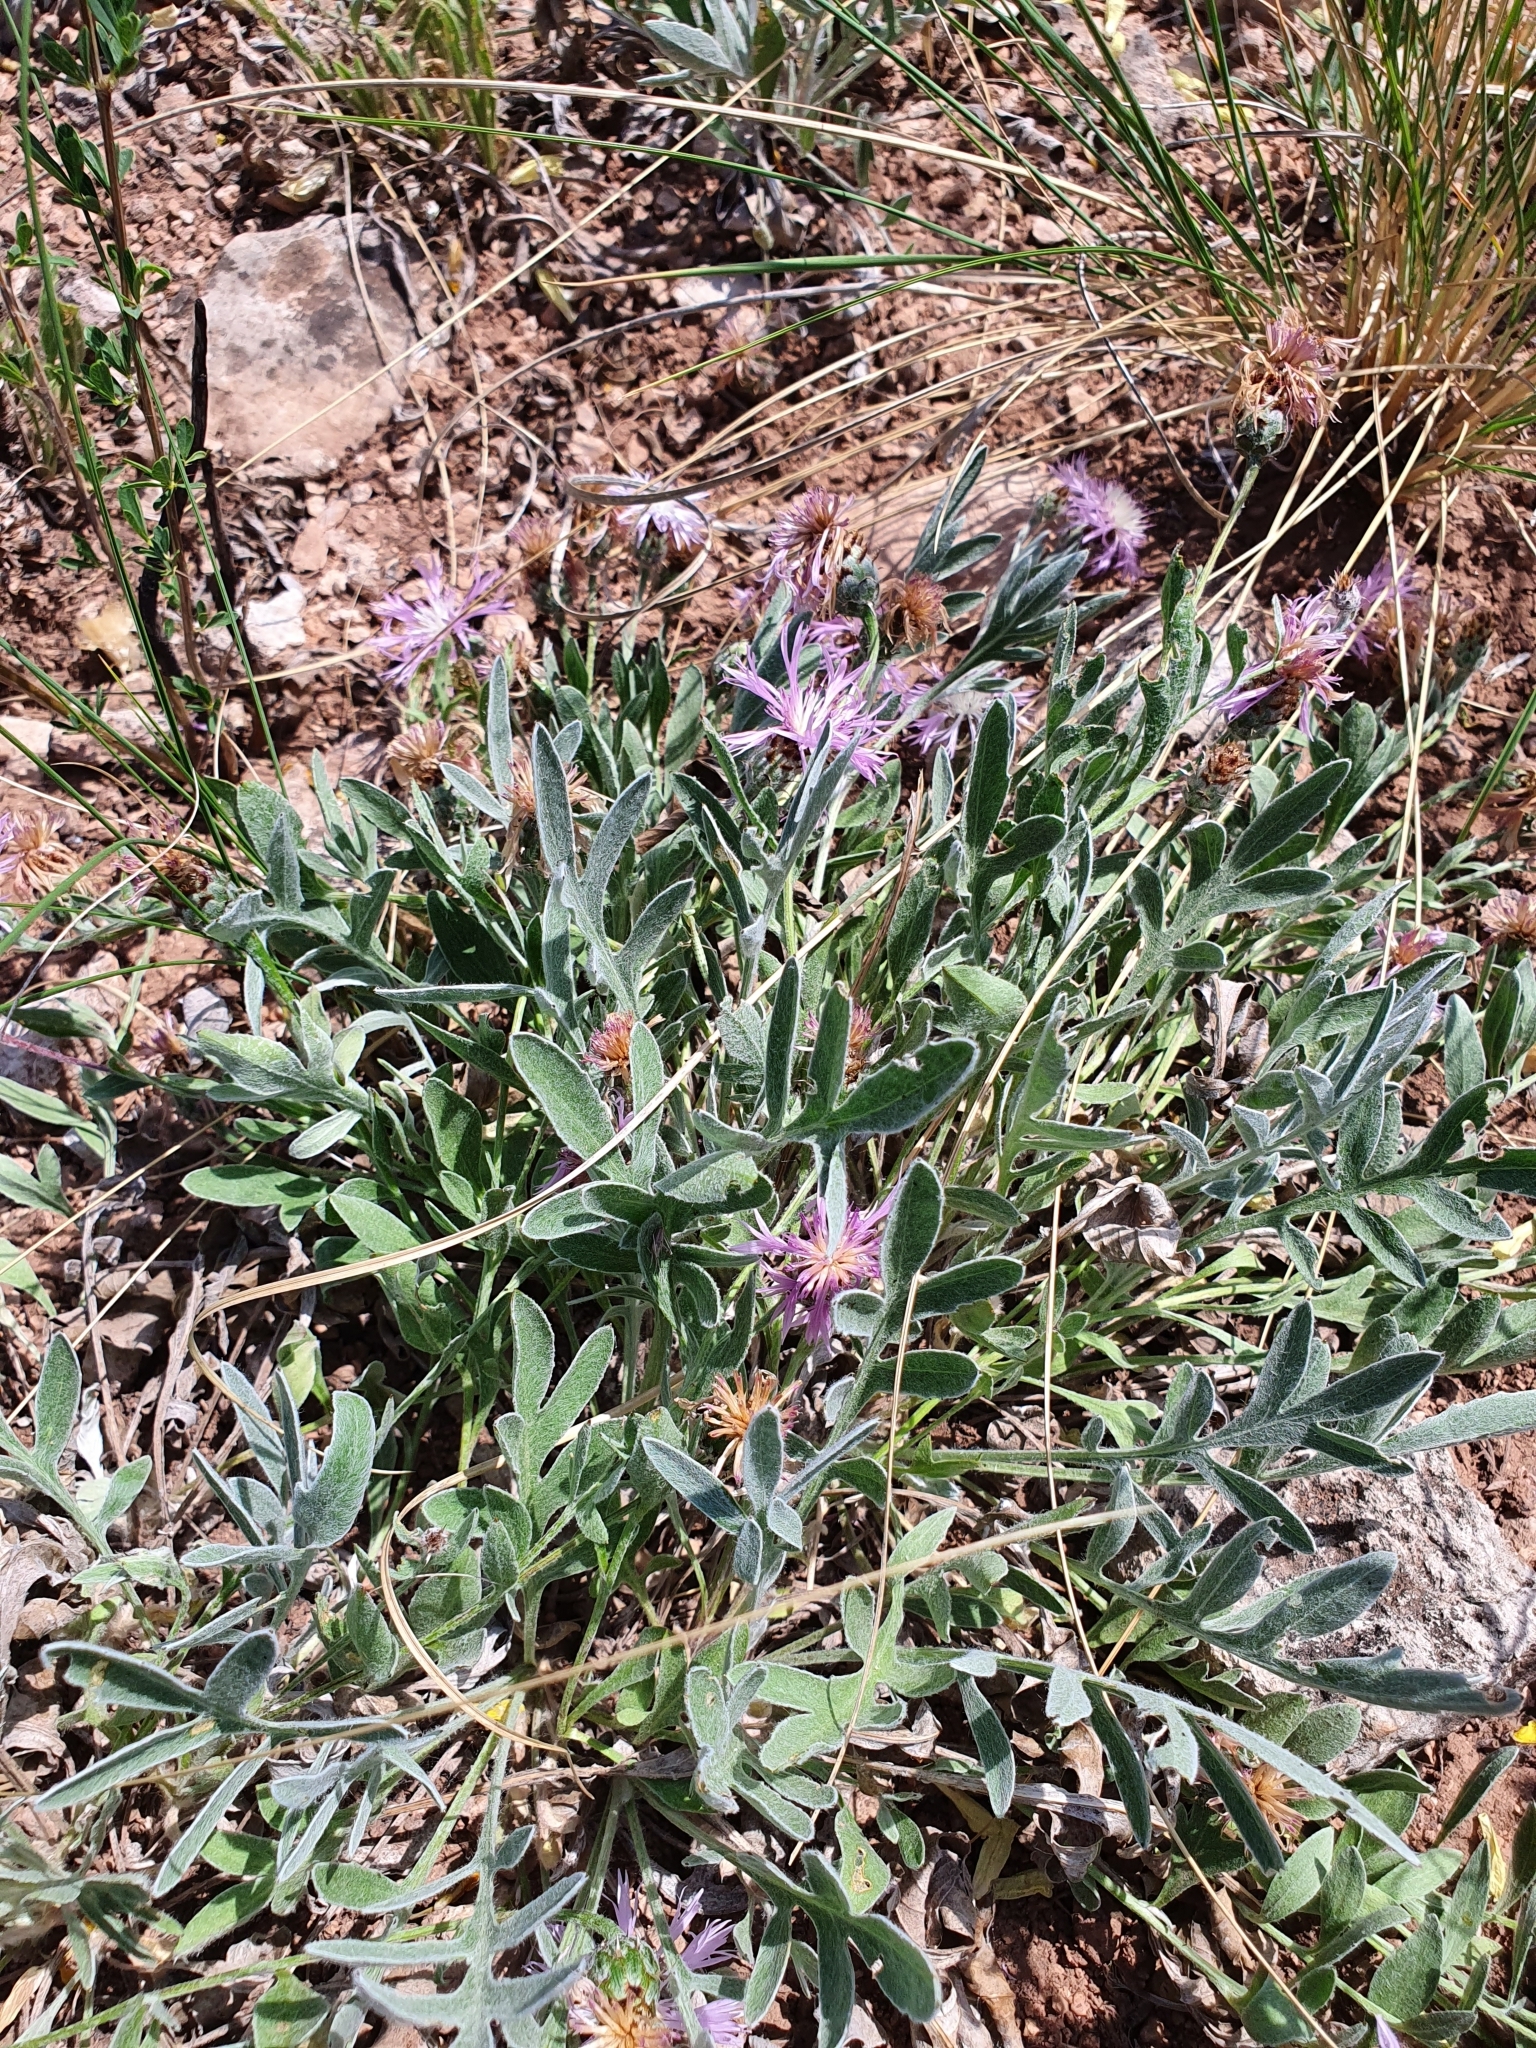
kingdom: Plantae
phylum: Tracheophyta
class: Magnoliopsida
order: Asterales
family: Asteraceae
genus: Psephellus
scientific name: Psephellus marschallianus
